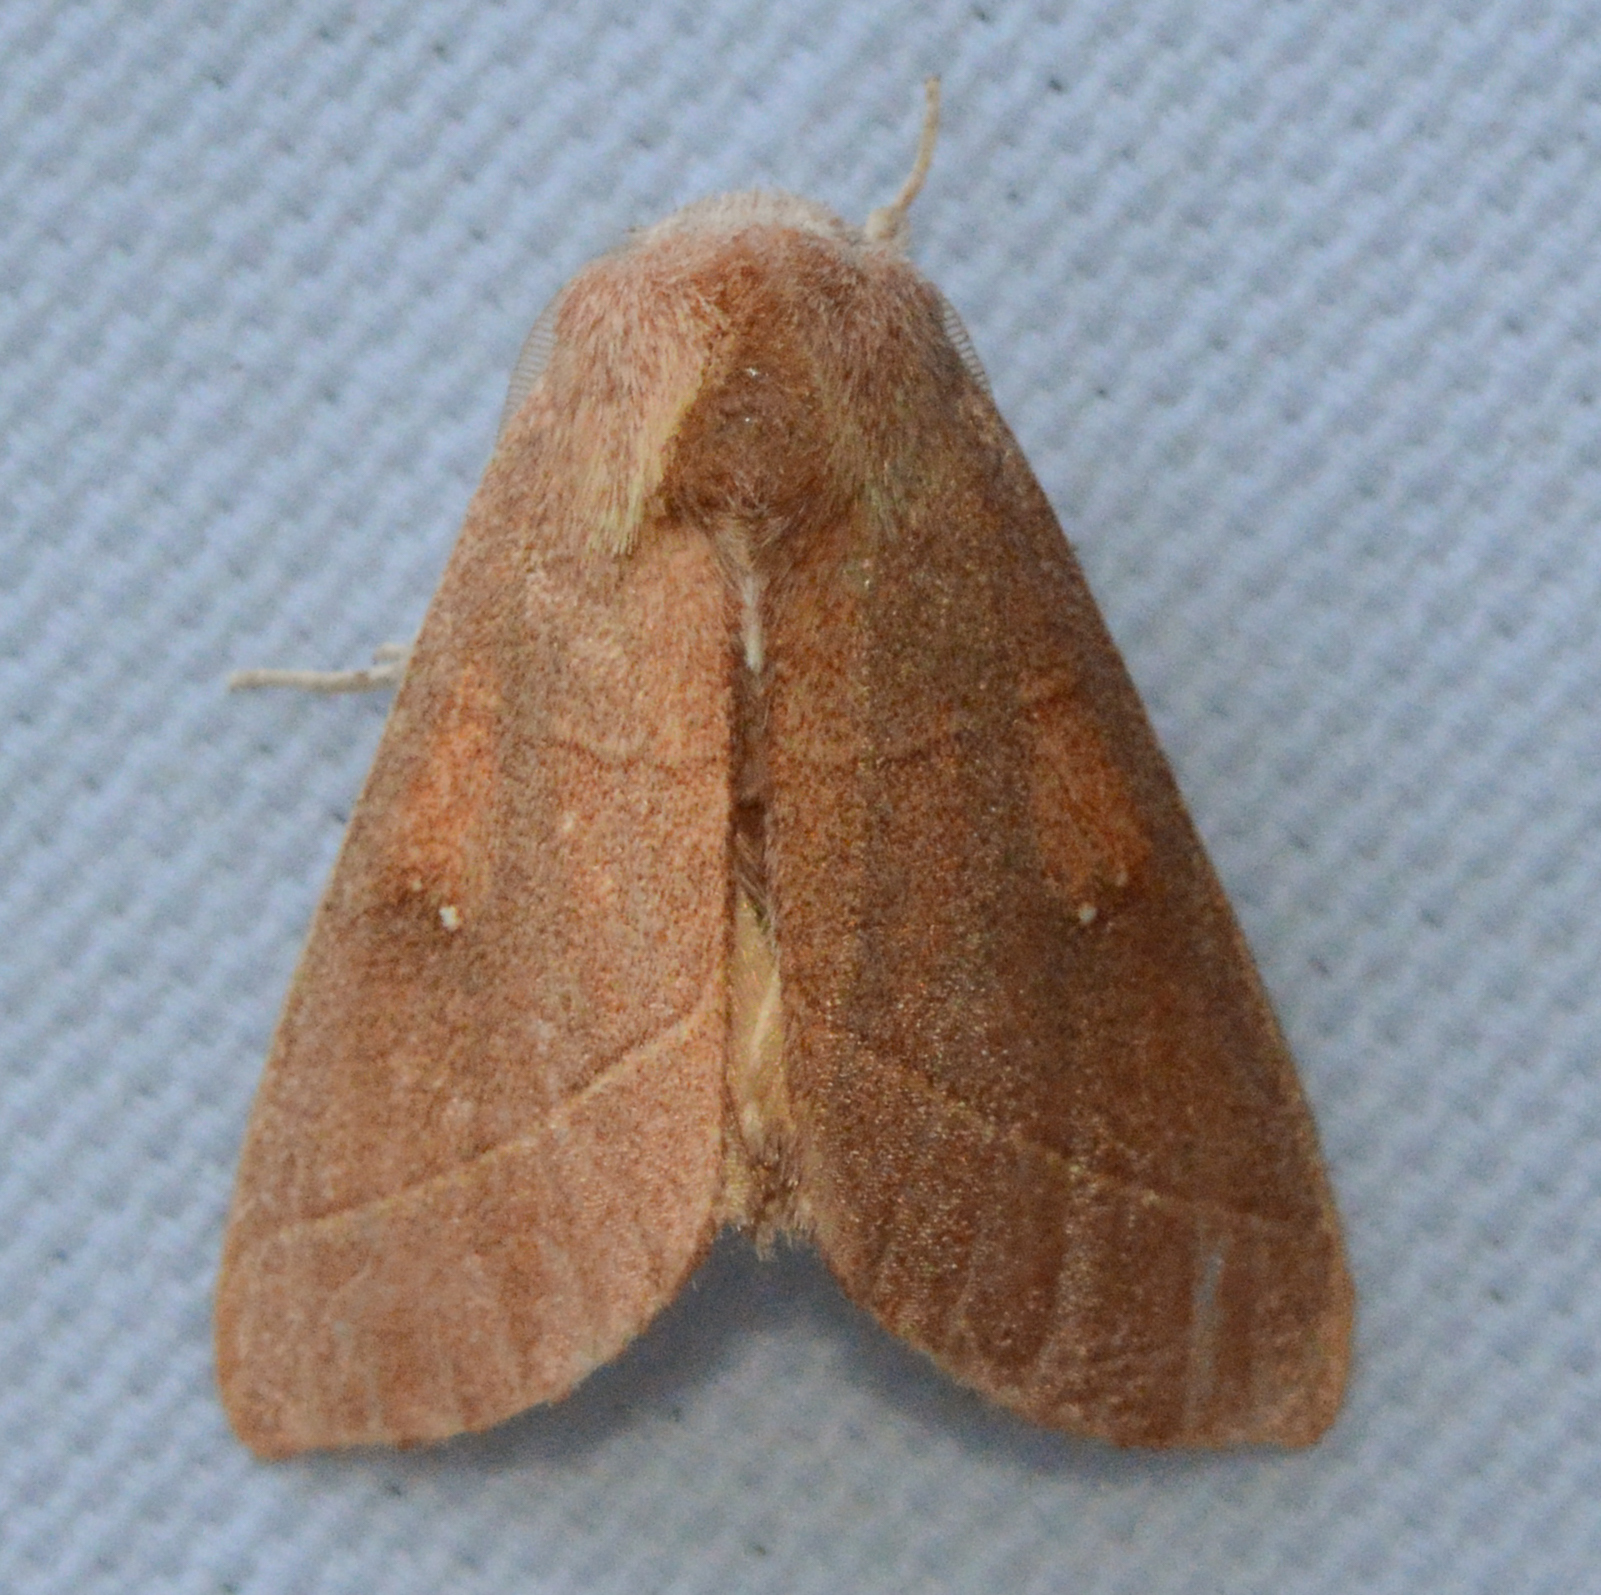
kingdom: Animalia
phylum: Arthropoda
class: Insecta
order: Lepidoptera
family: Notodontidae
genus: Nadata
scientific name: Nadata gibbosa
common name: White-dotted prominent
